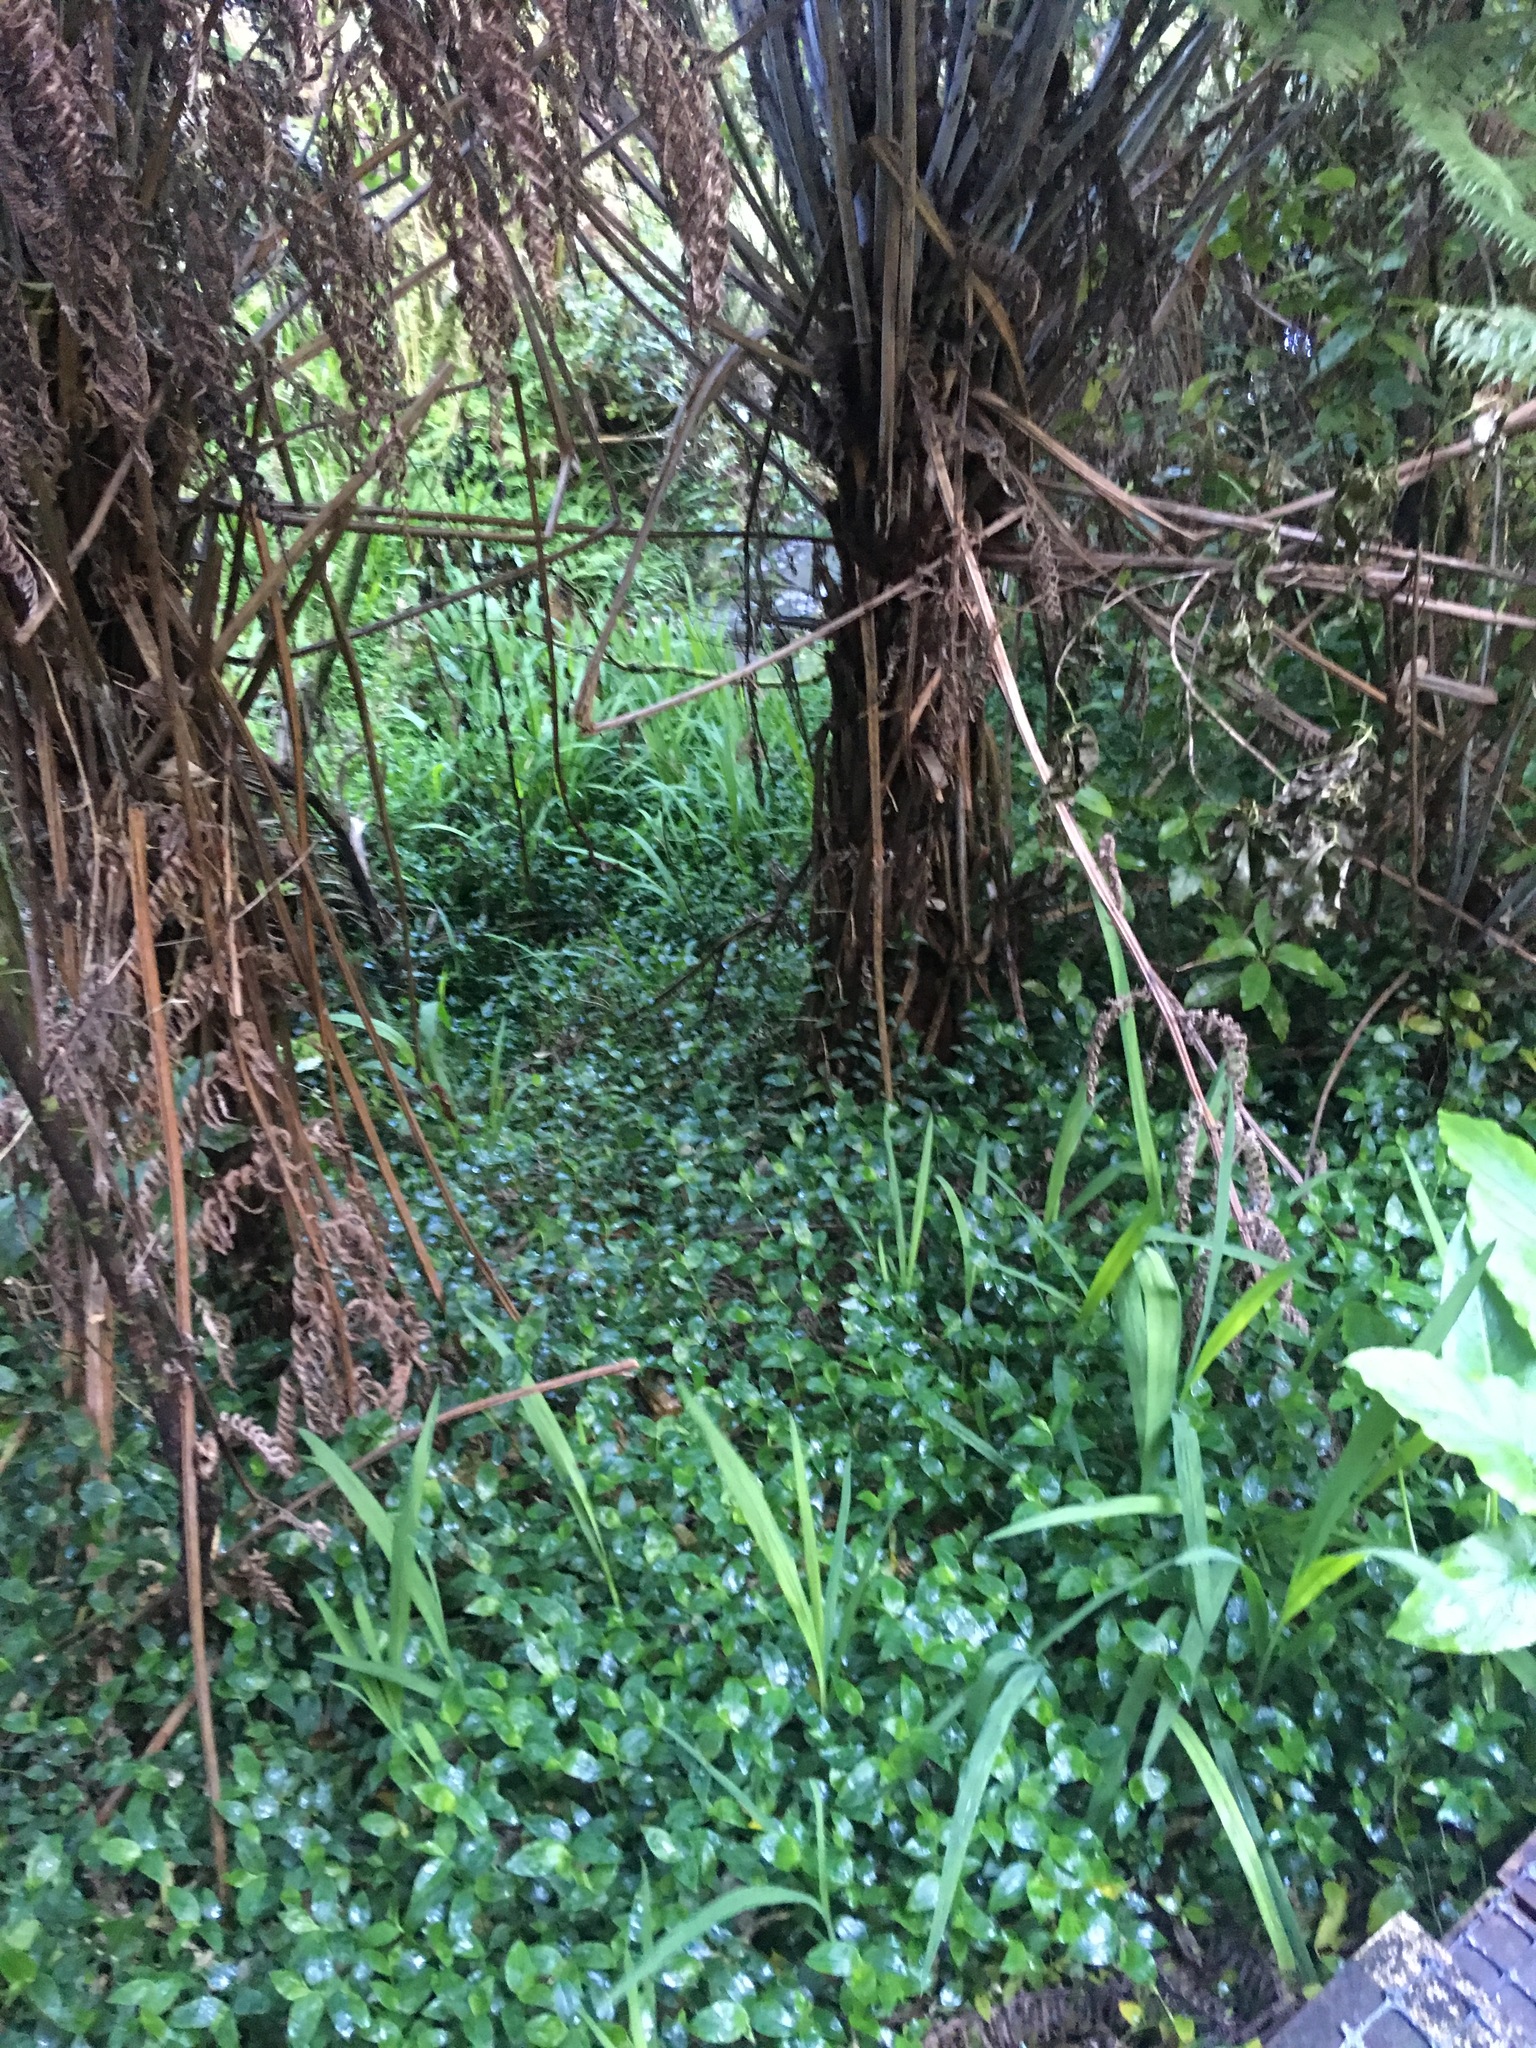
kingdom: Plantae
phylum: Tracheophyta
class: Liliopsida
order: Asparagales
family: Iridaceae
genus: Crocosmia
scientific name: Crocosmia crocosmiiflora
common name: Montbretia
